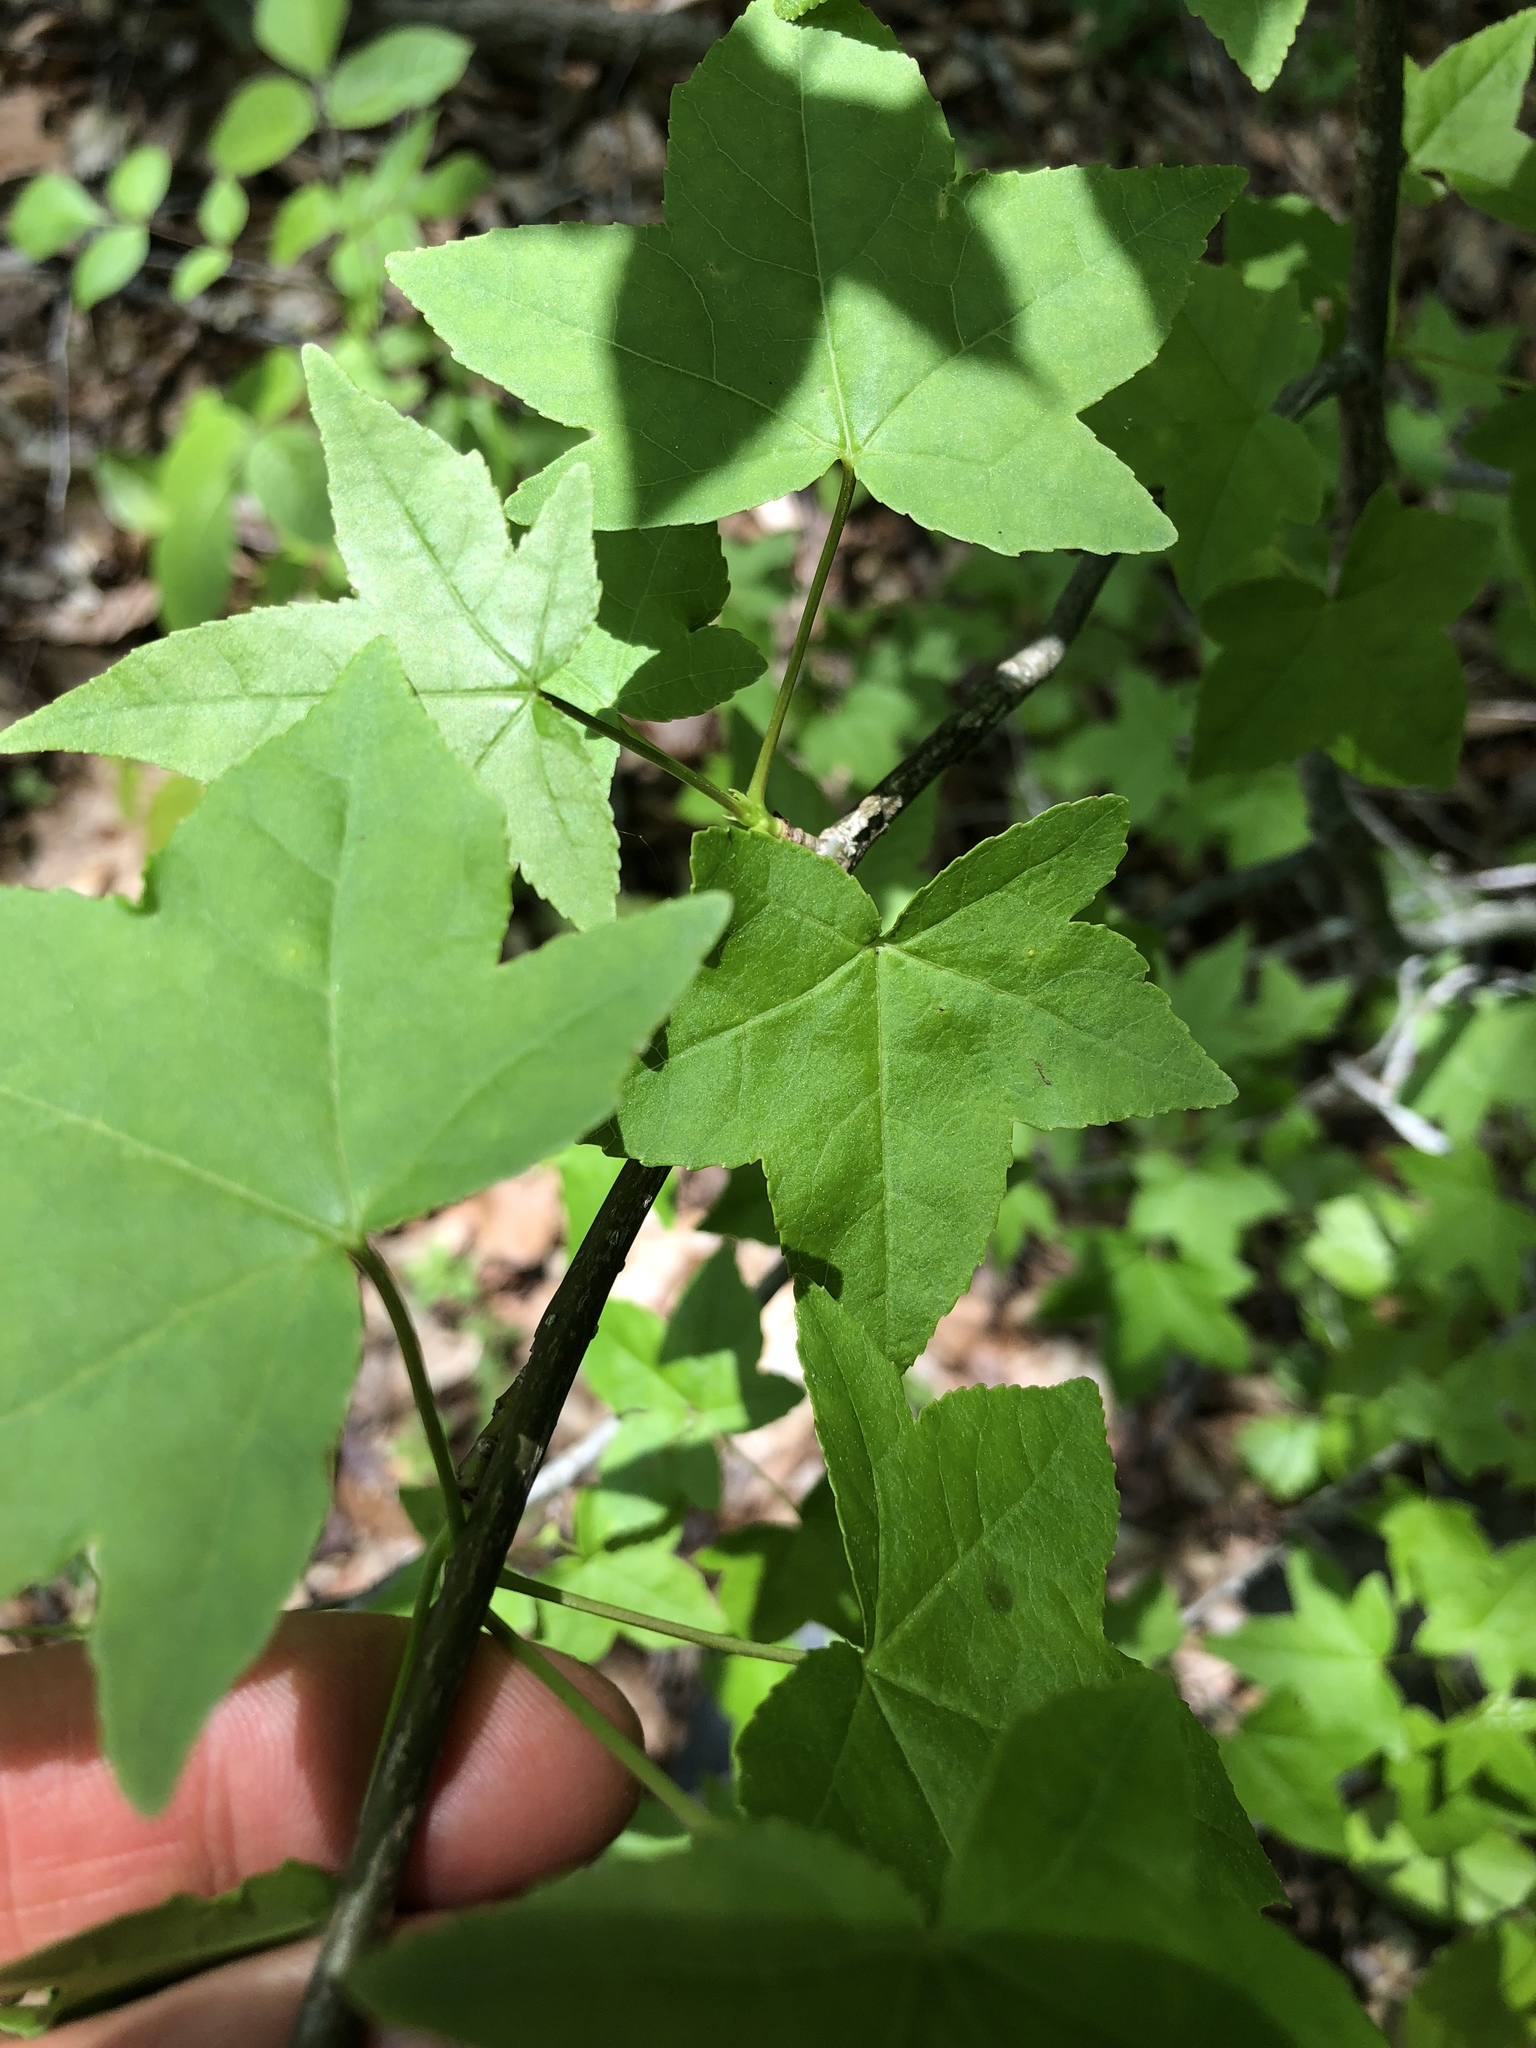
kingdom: Plantae
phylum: Tracheophyta
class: Magnoliopsida
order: Saxifragales
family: Altingiaceae
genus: Liquidambar
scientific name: Liquidambar styraciflua
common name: Sweet gum
